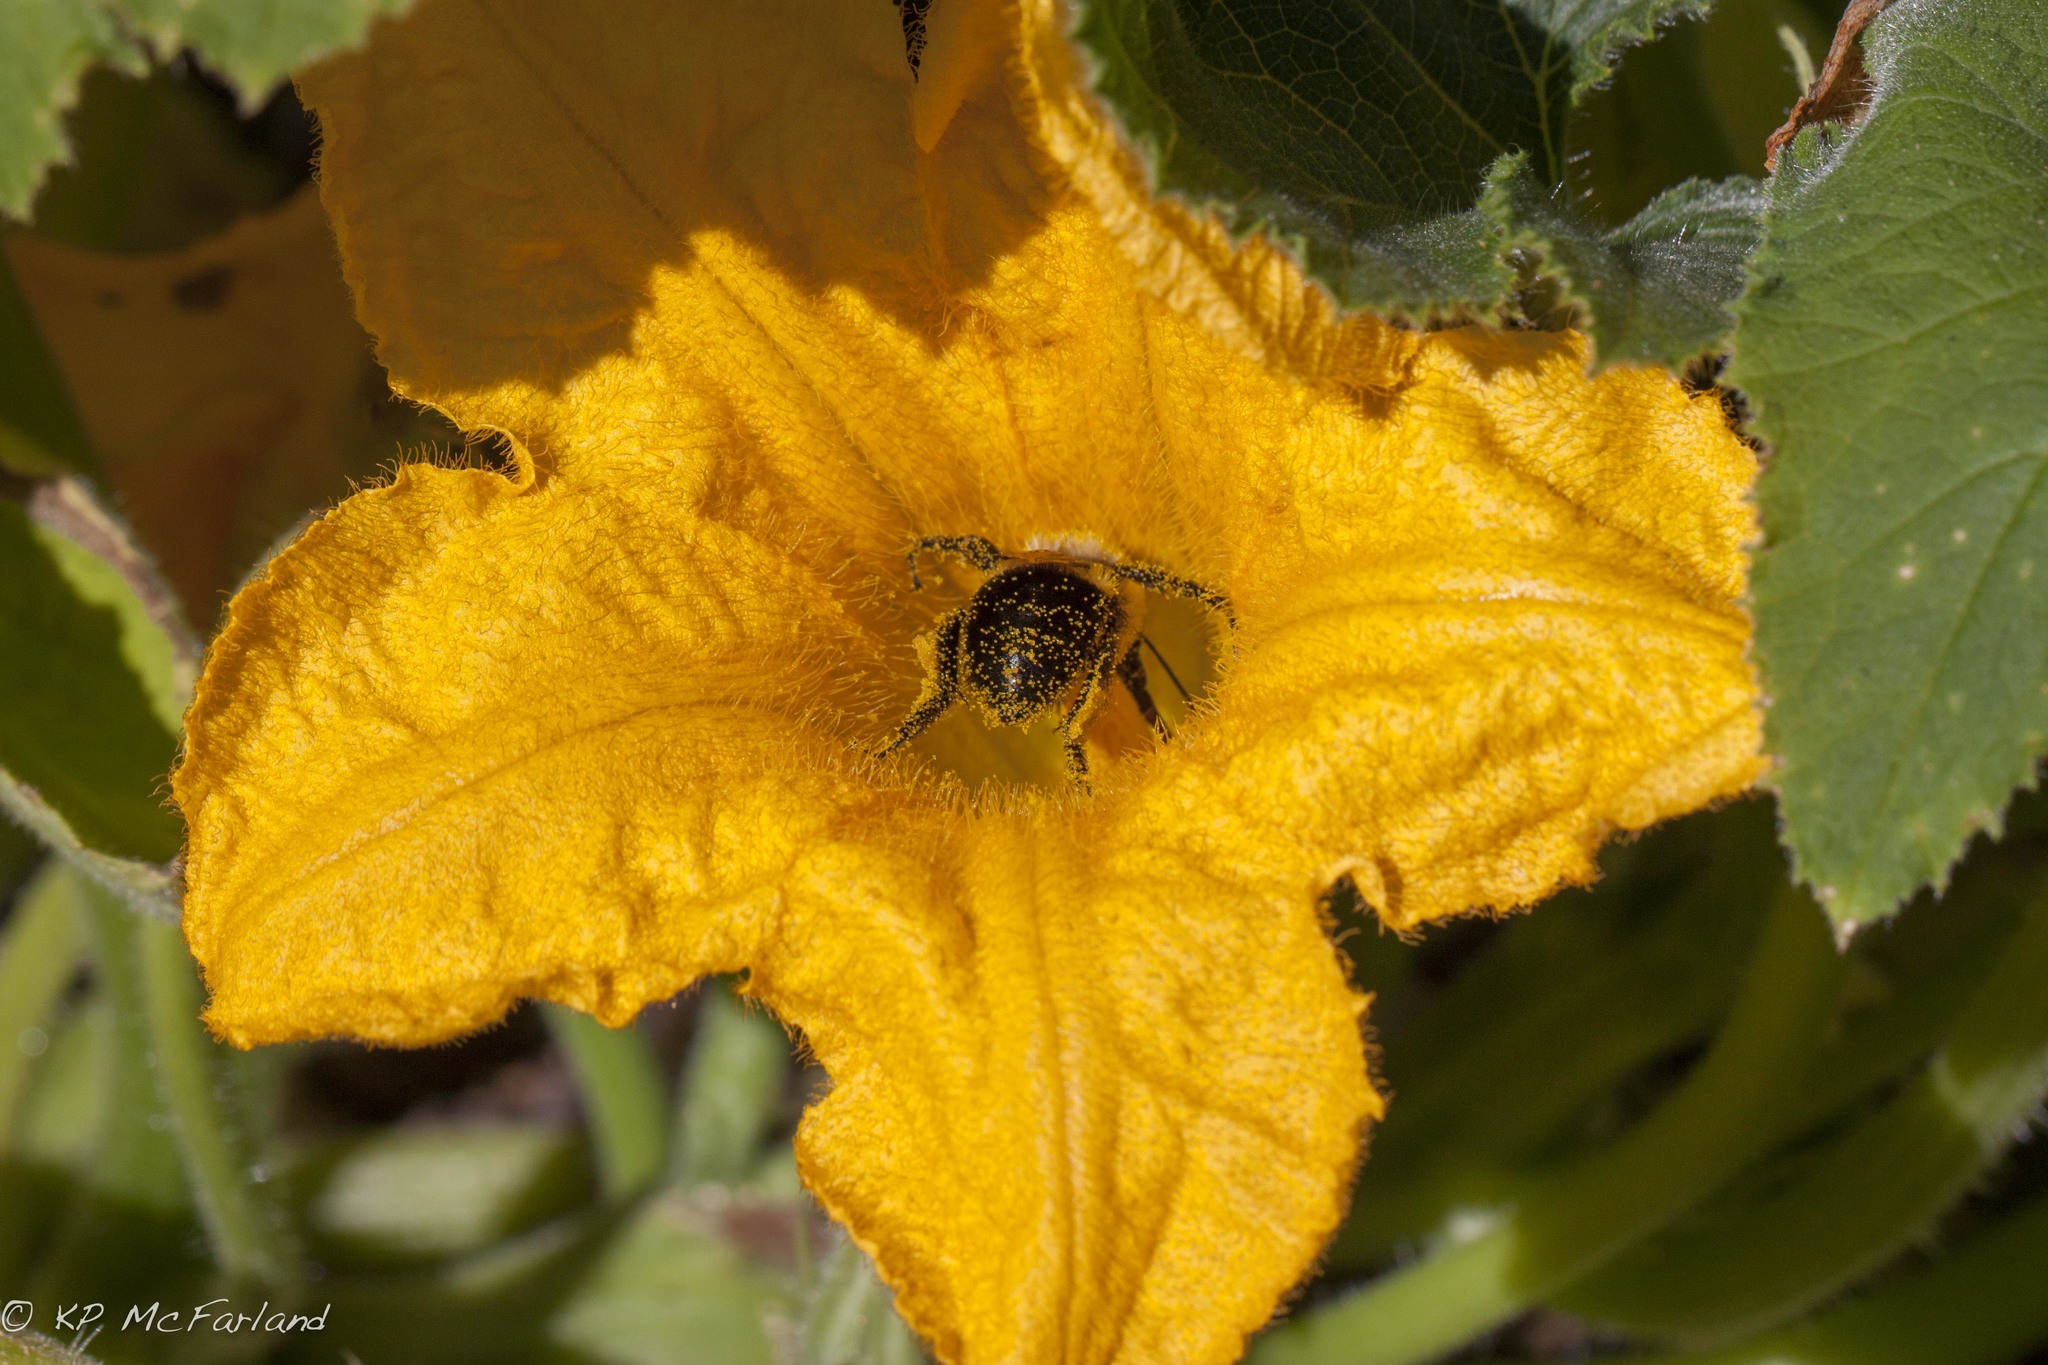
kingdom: Animalia
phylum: Arthropoda
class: Insecta
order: Hymenoptera
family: Apidae
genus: Bombus
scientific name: Bombus impatiens
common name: Common eastern bumble bee
